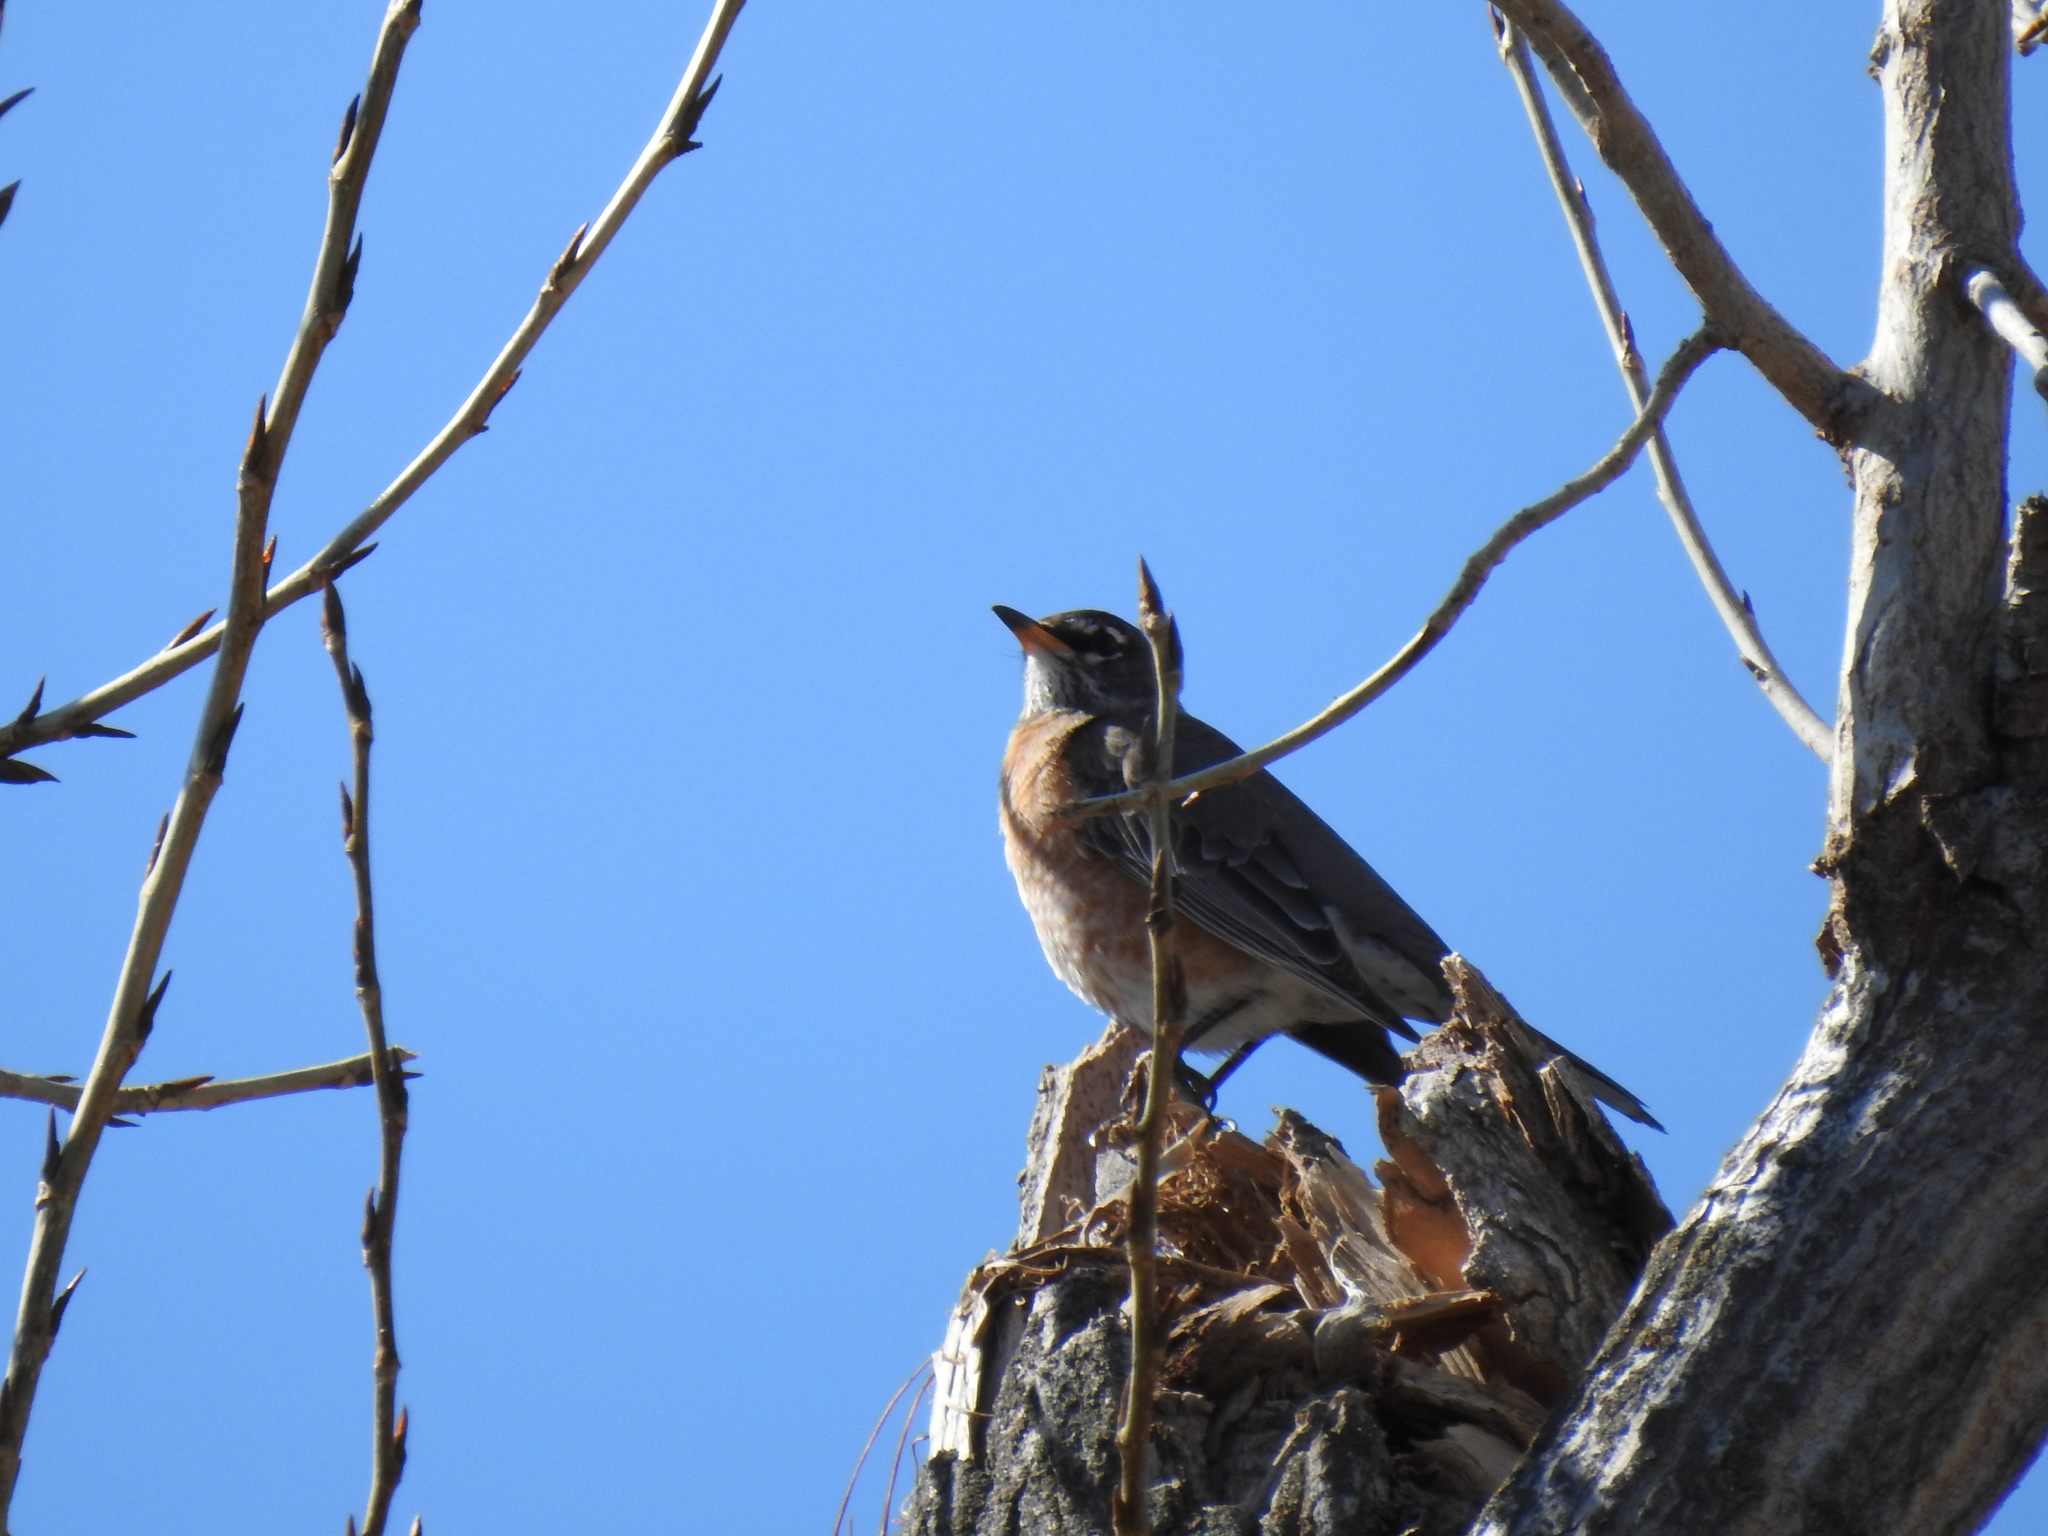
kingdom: Animalia
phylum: Chordata
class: Aves
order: Passeriformes
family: Turdidae
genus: Turdus
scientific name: Turdus migratorius
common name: American robin
